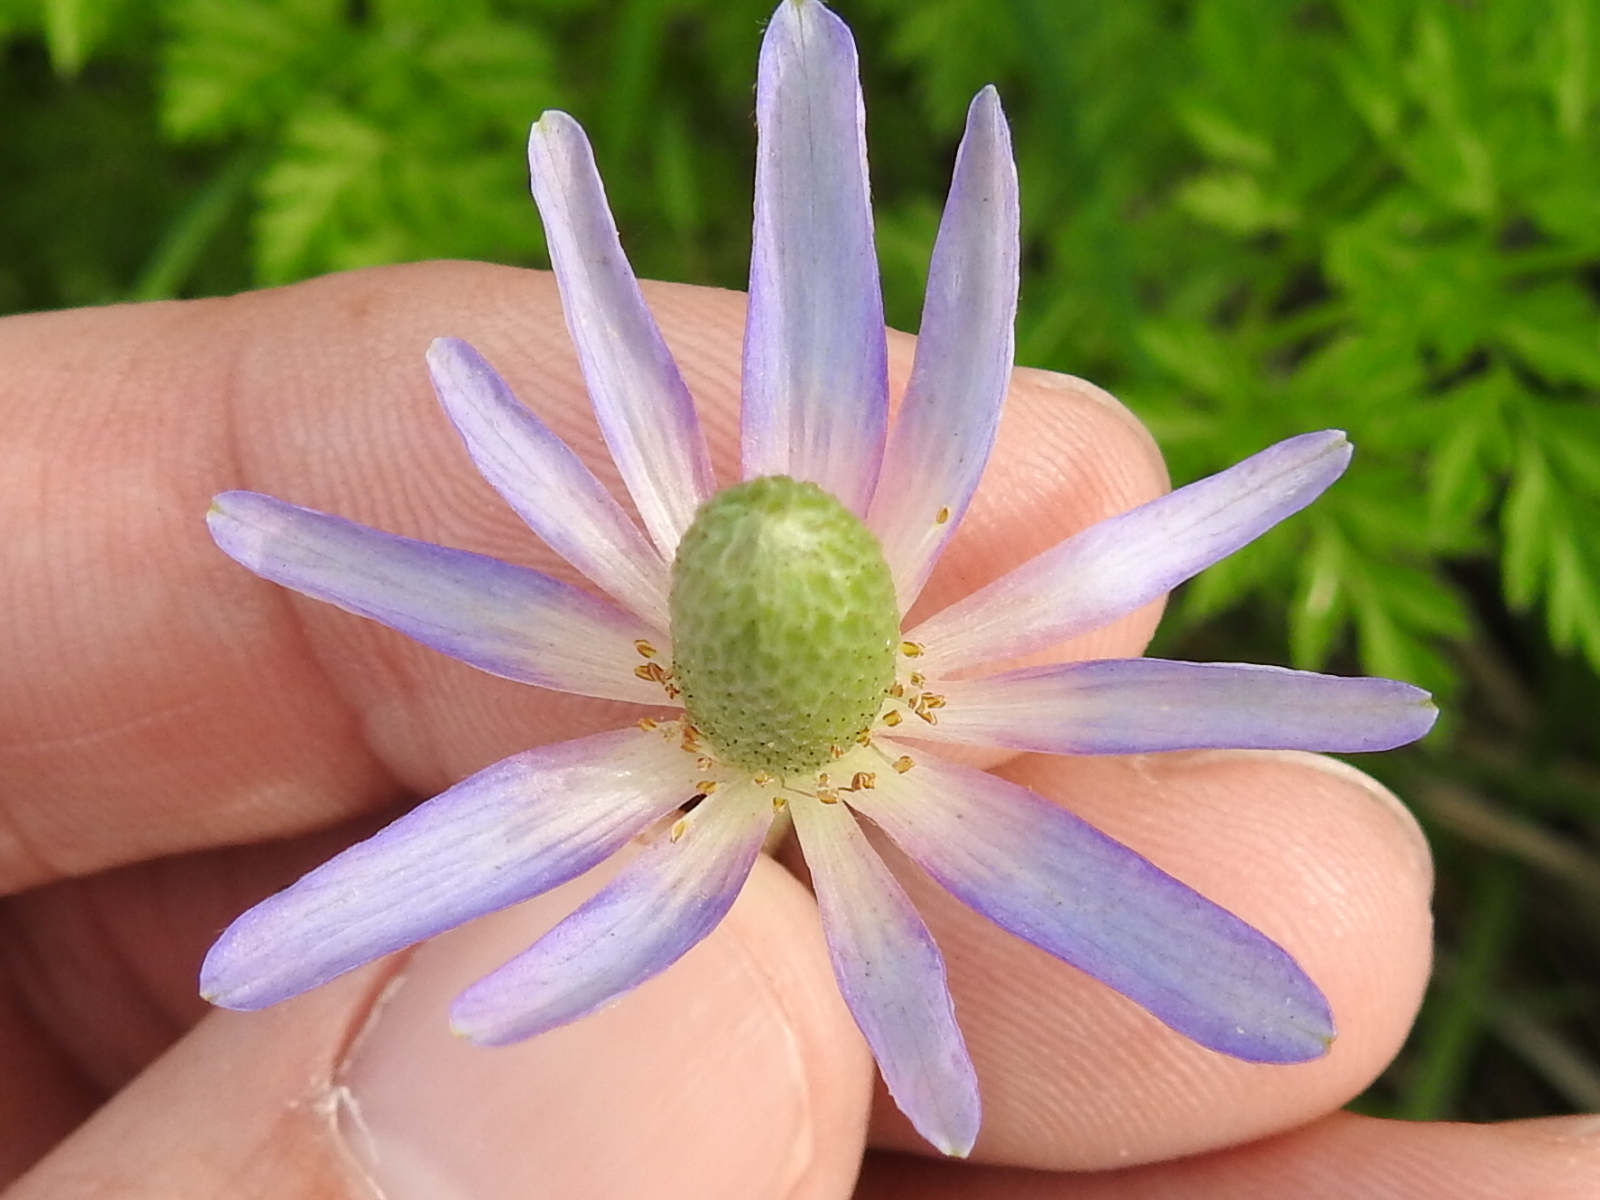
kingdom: Plantae
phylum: Tracheophyta
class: Magnoliopsida
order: Ranunculales
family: Ranunculaceae
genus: Anemone
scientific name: Anemone berlandieri
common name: Ten-petal anemone
